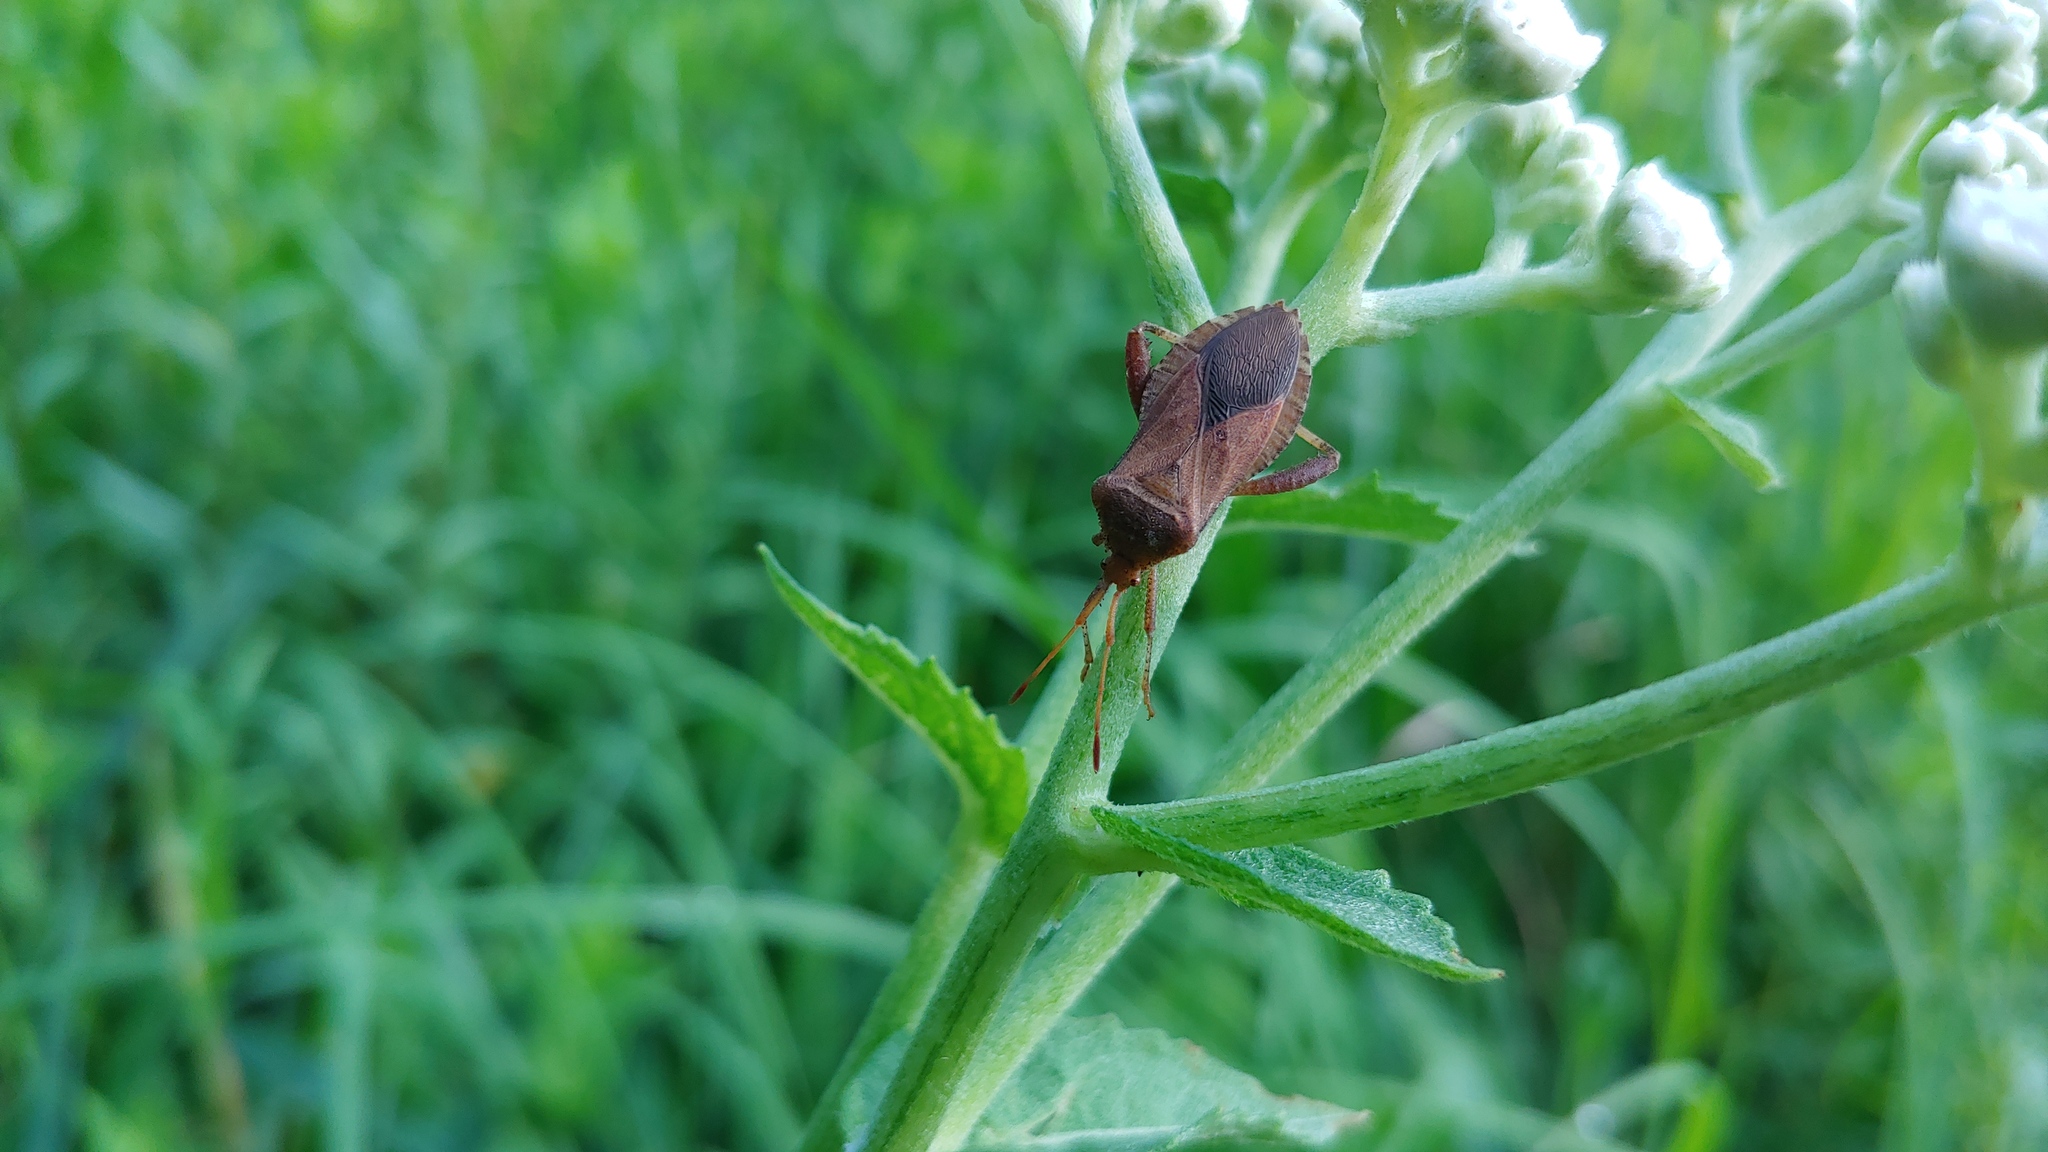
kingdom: Animalia
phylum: Arthropoda
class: Insecta
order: Hemiptera
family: Coreidae
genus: Euthochtha
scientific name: Euthochtha galeator
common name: Helmeted squash bug
